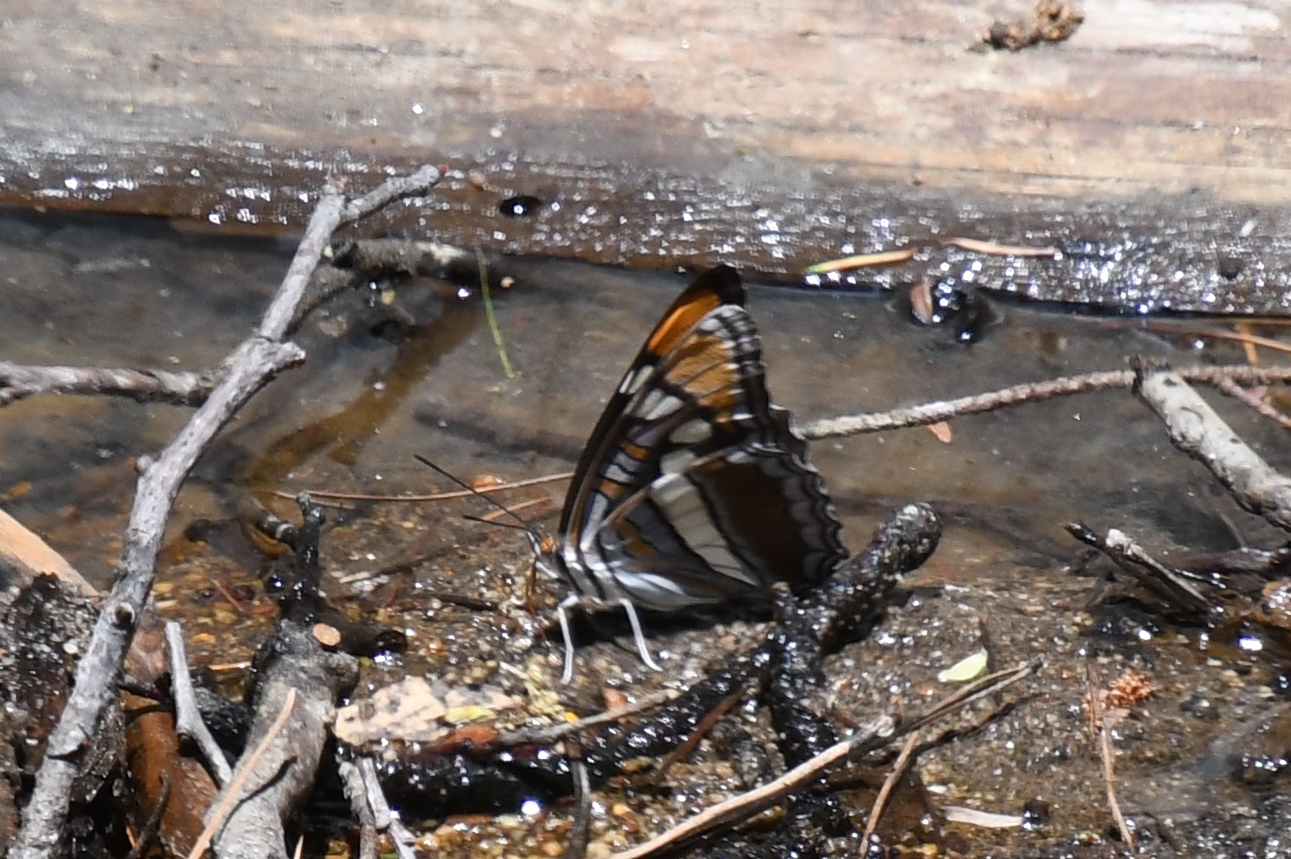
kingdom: Animalia
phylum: Arthropoda
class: Insecta
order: Lepidoptera
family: Nymphalidae
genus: Limenitis
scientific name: Limenitis bredowii
